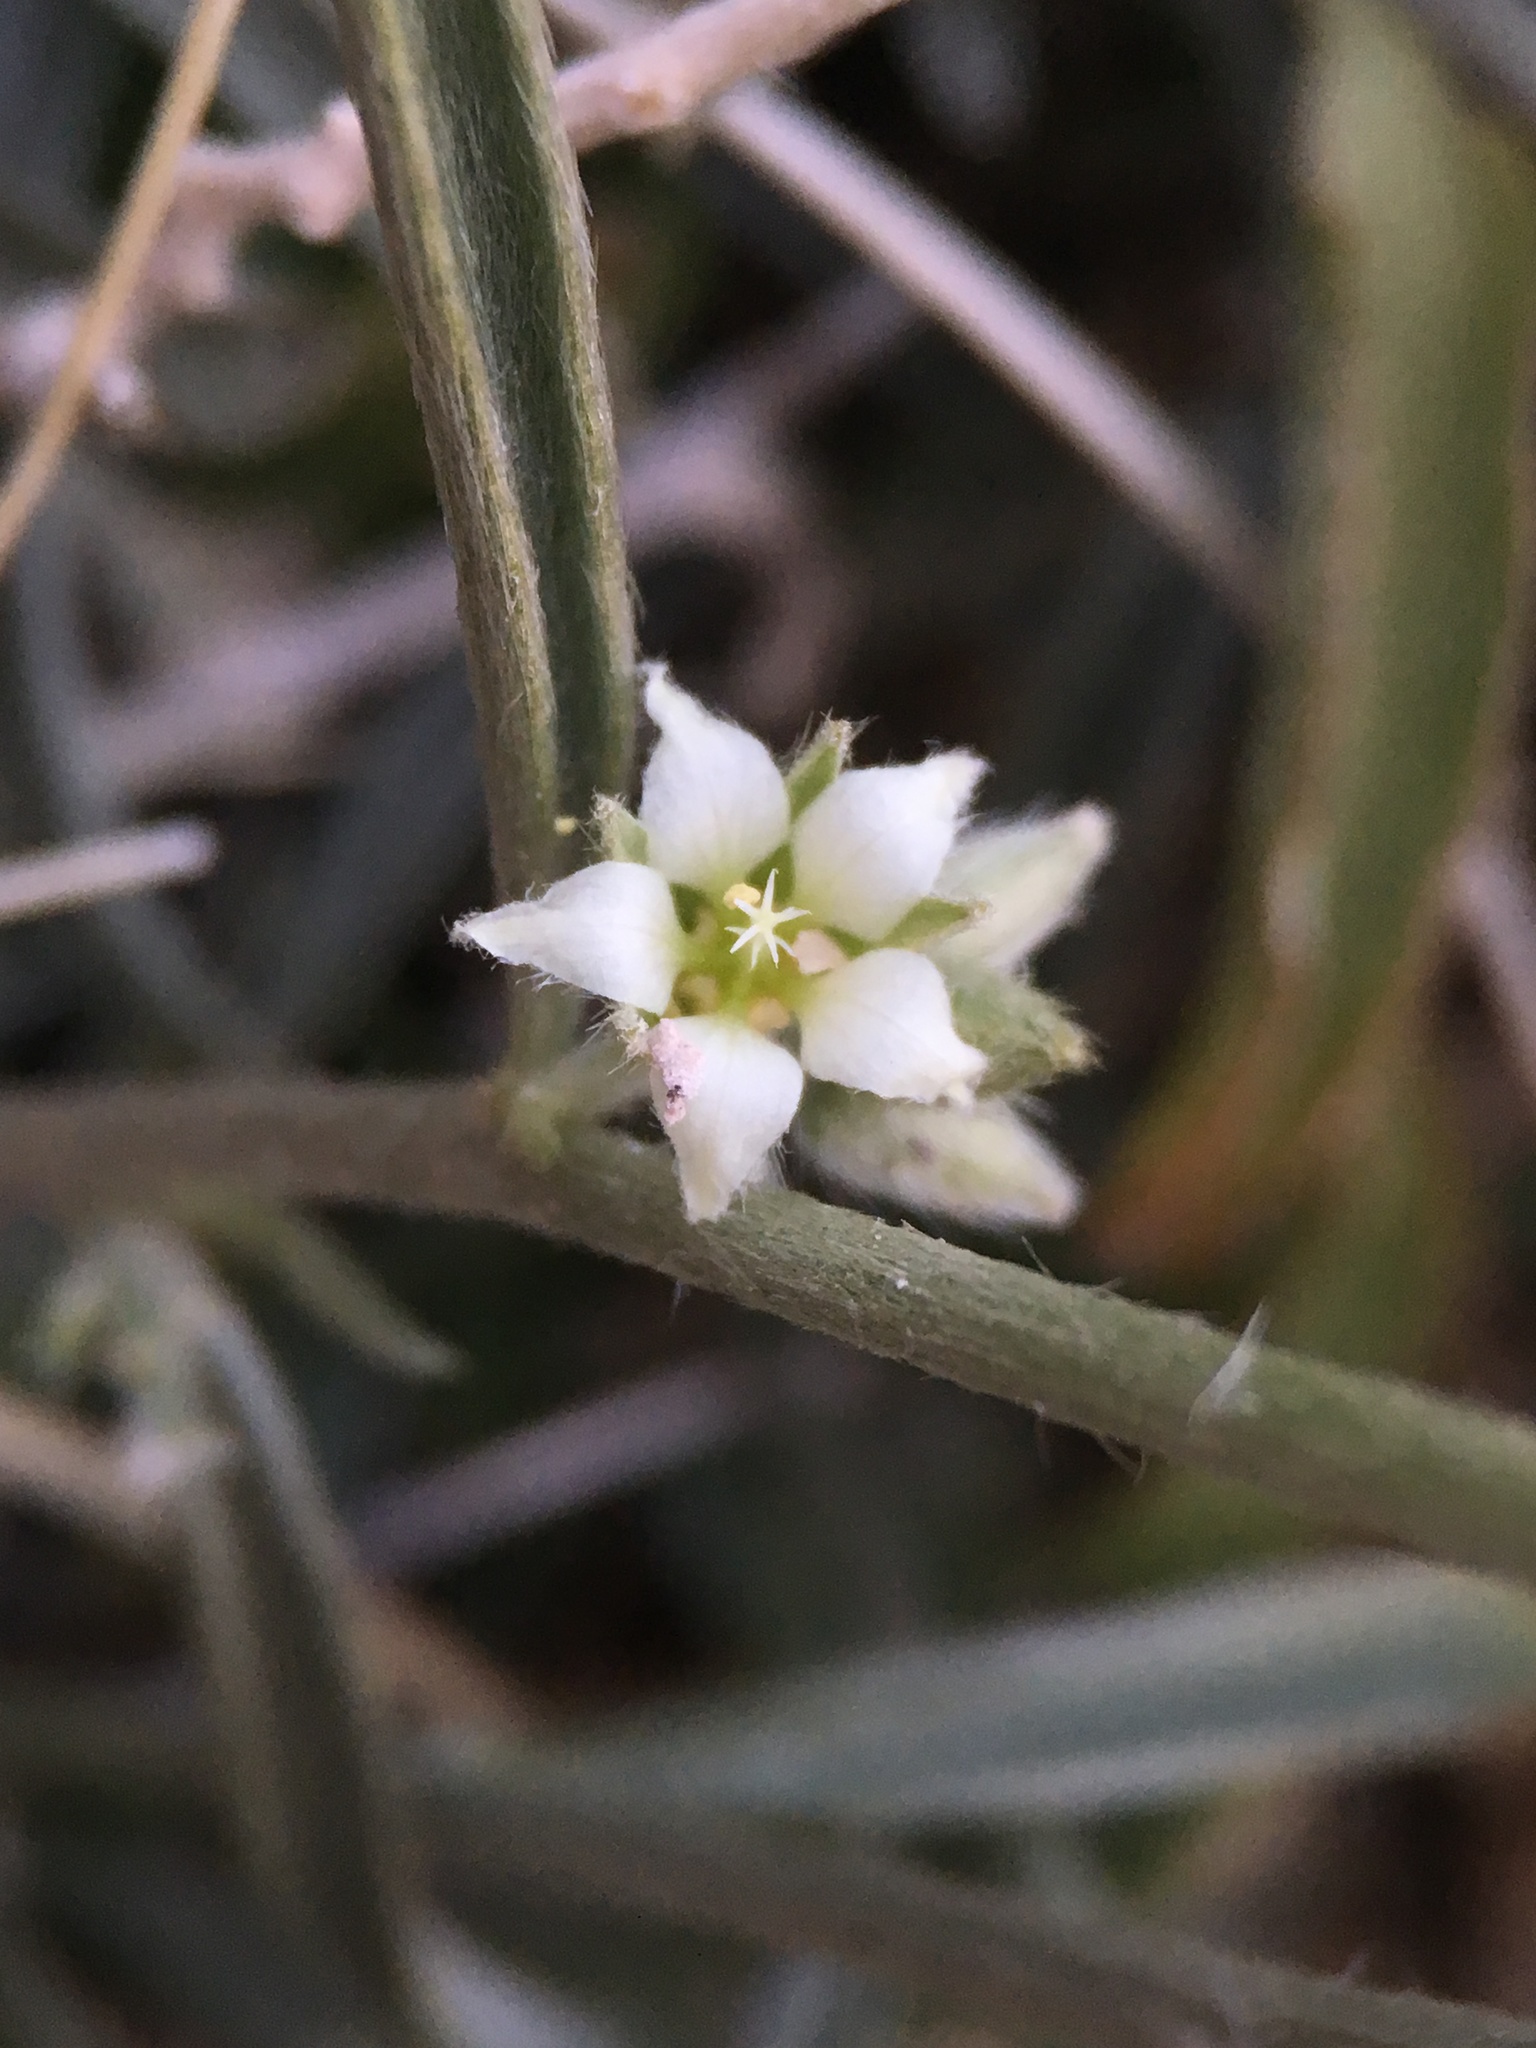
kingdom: Plantae
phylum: Tracheophyta
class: Magnoliopsida
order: Malpighiales
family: Euphorbiaceae
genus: Ditaxis
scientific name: Ditaxis lanceolata
